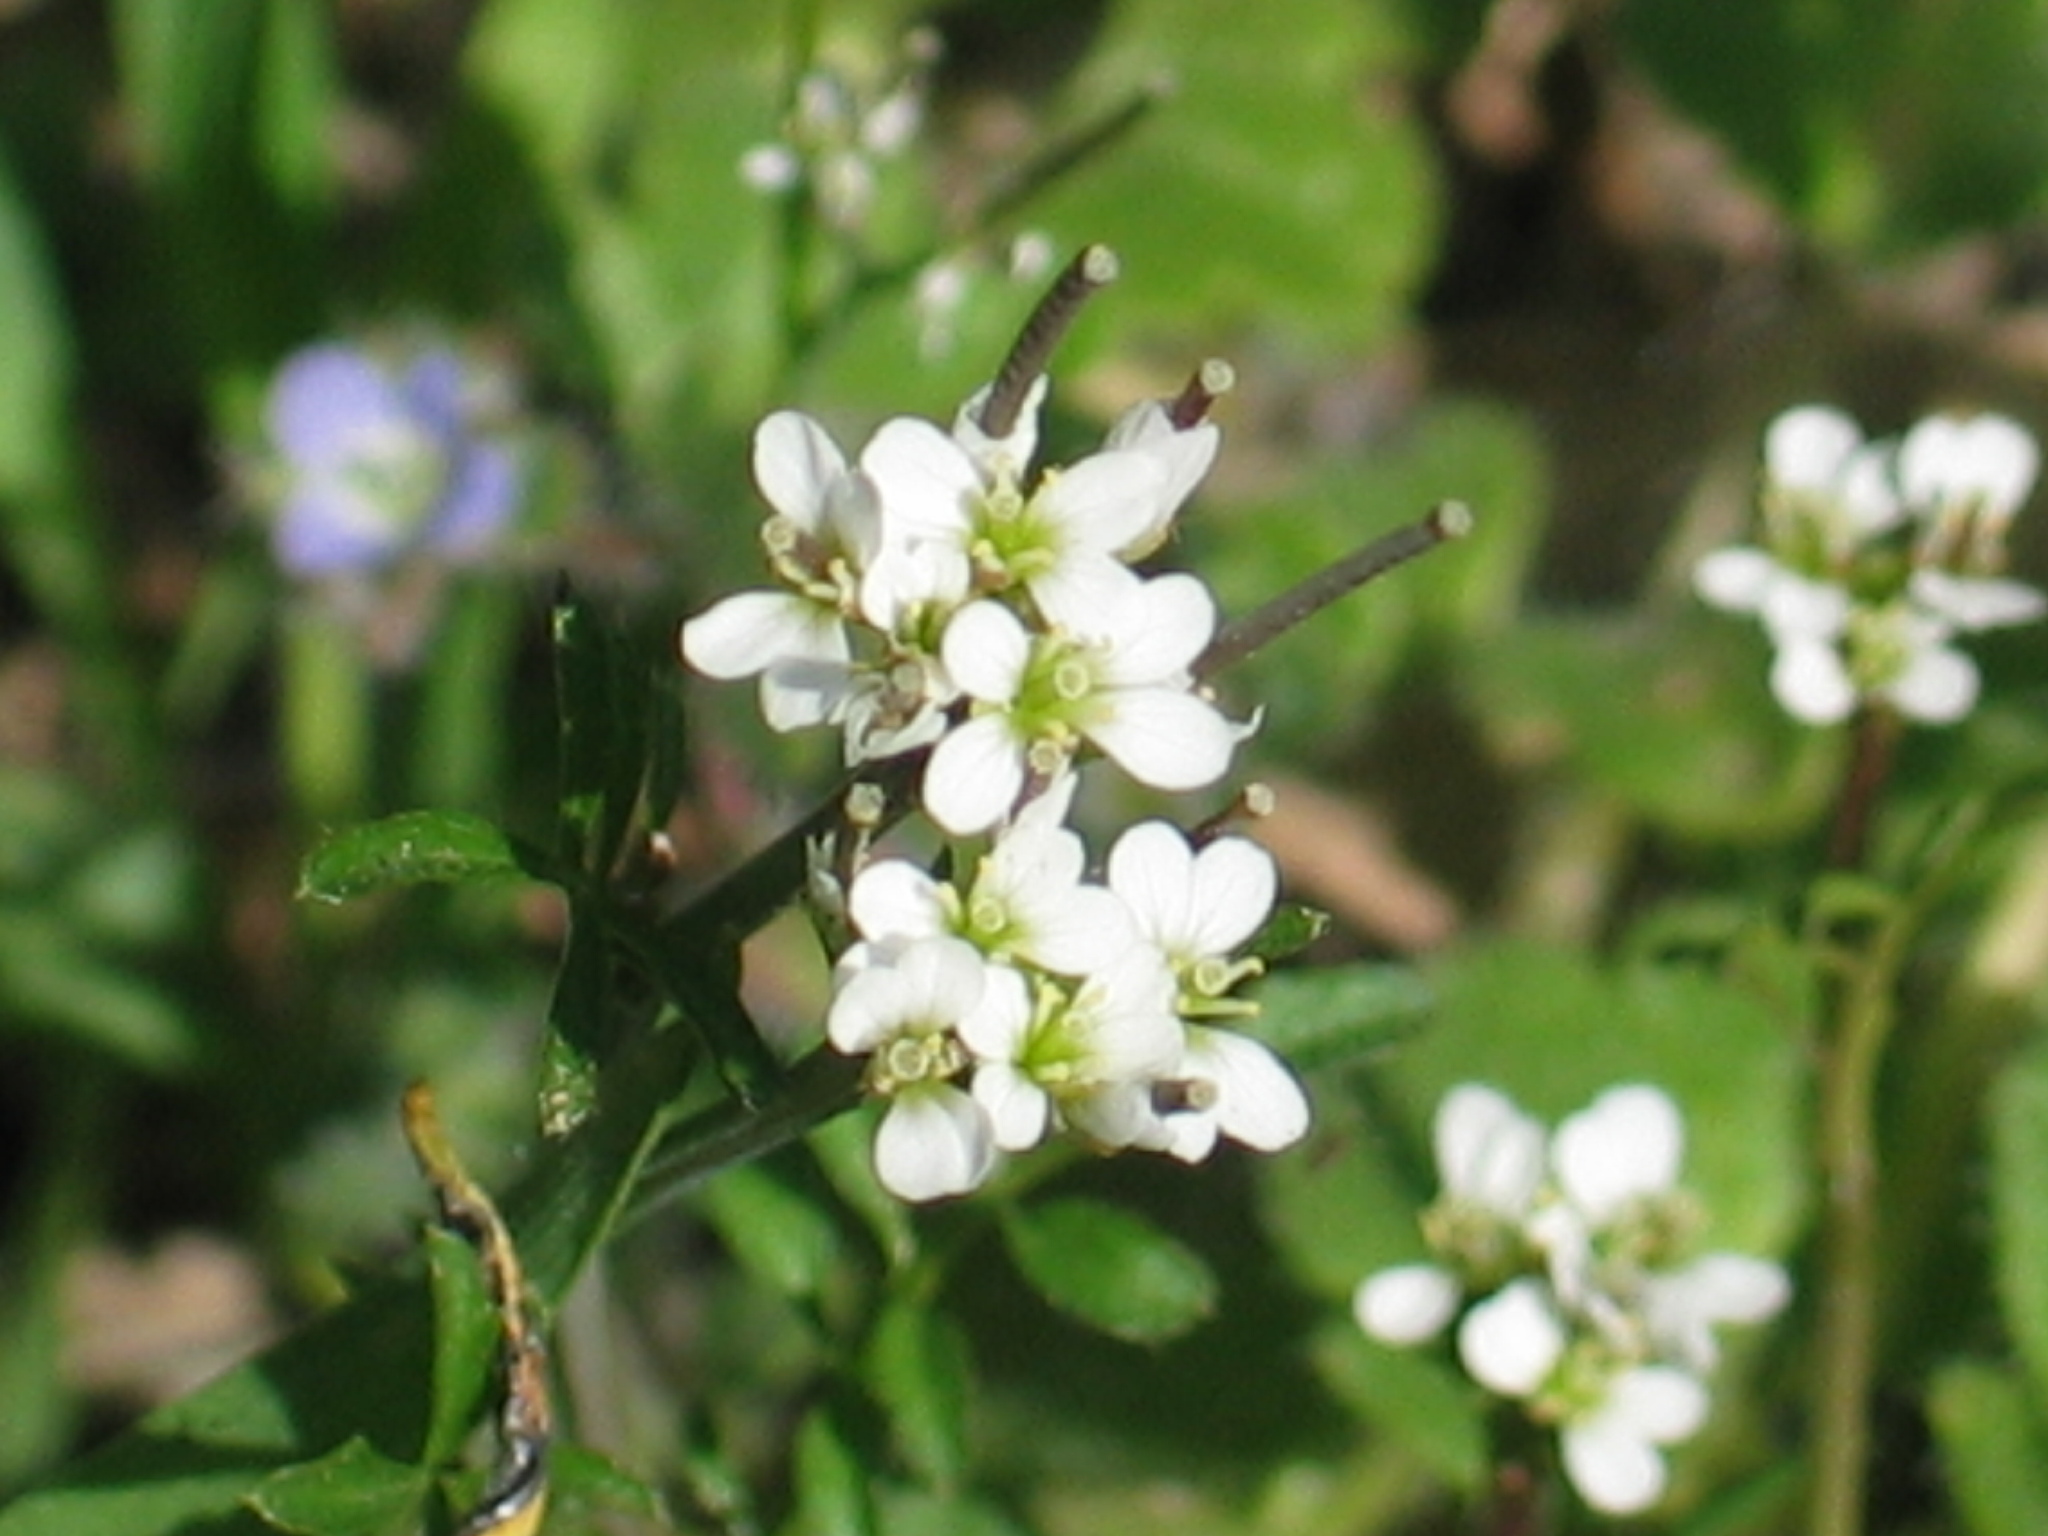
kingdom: Plantae
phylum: Tracheophyta
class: Magnoliopsida
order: Brassicales
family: Brassicaceae
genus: Cardamine
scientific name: Cardamine hirsuta
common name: Hairy bittercress
